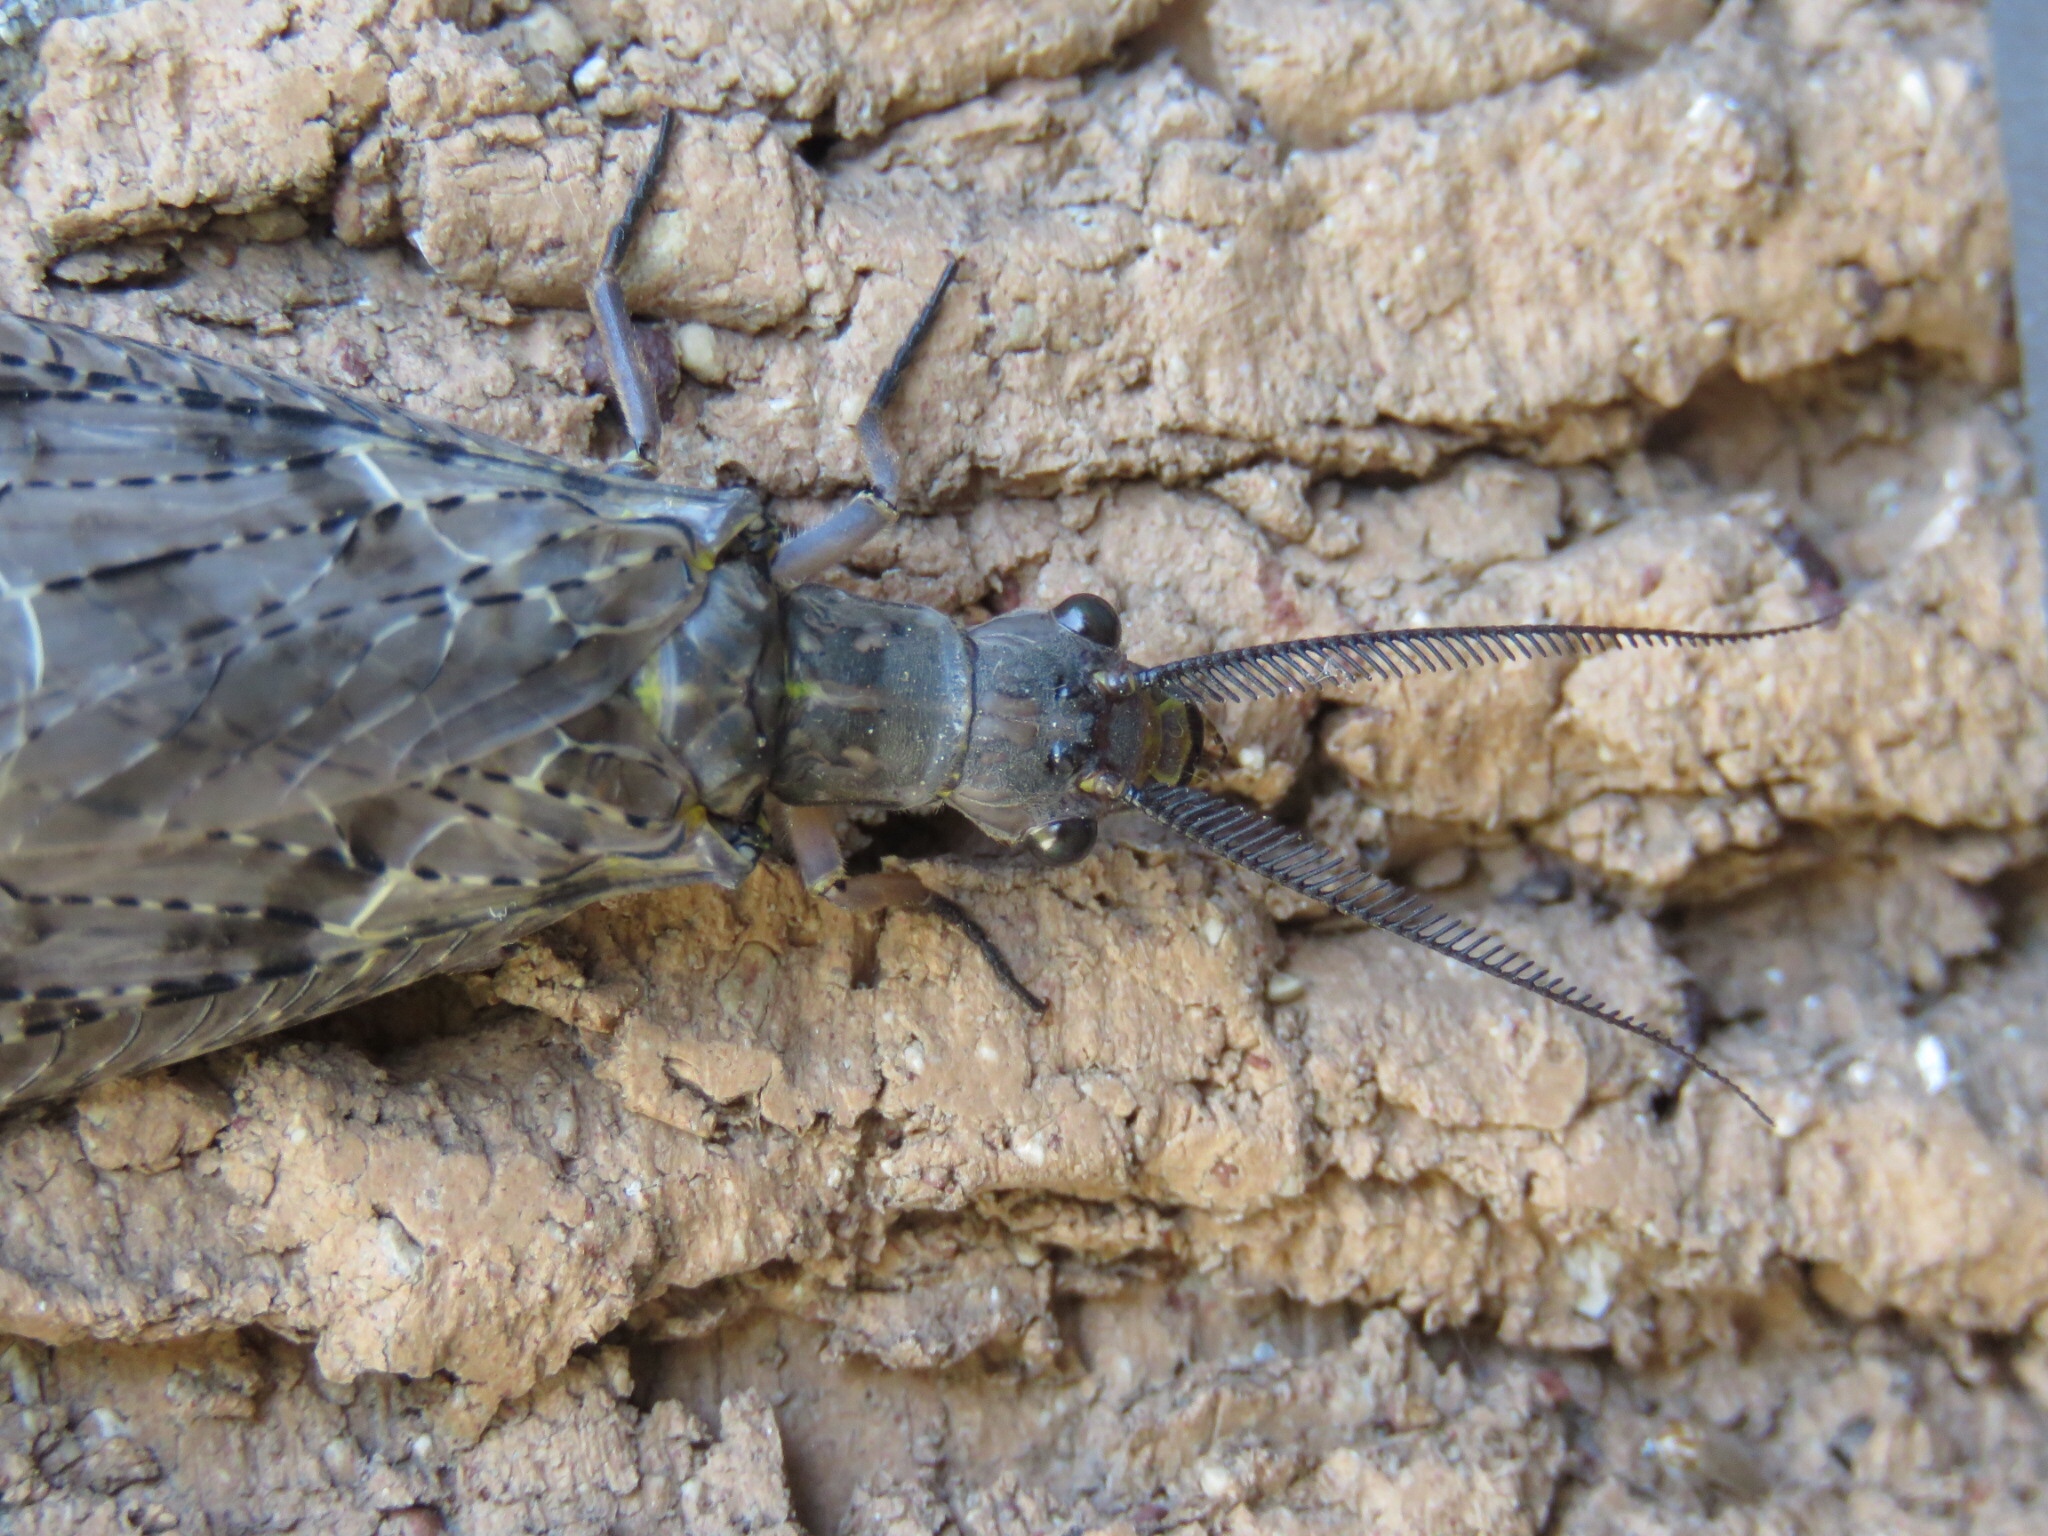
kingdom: Animalia
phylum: Arthropoda
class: Insecta
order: Megaloptera
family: Corydalidae
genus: Chauliodes
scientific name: Chauliodes pectinicornis
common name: Summer fishfly
